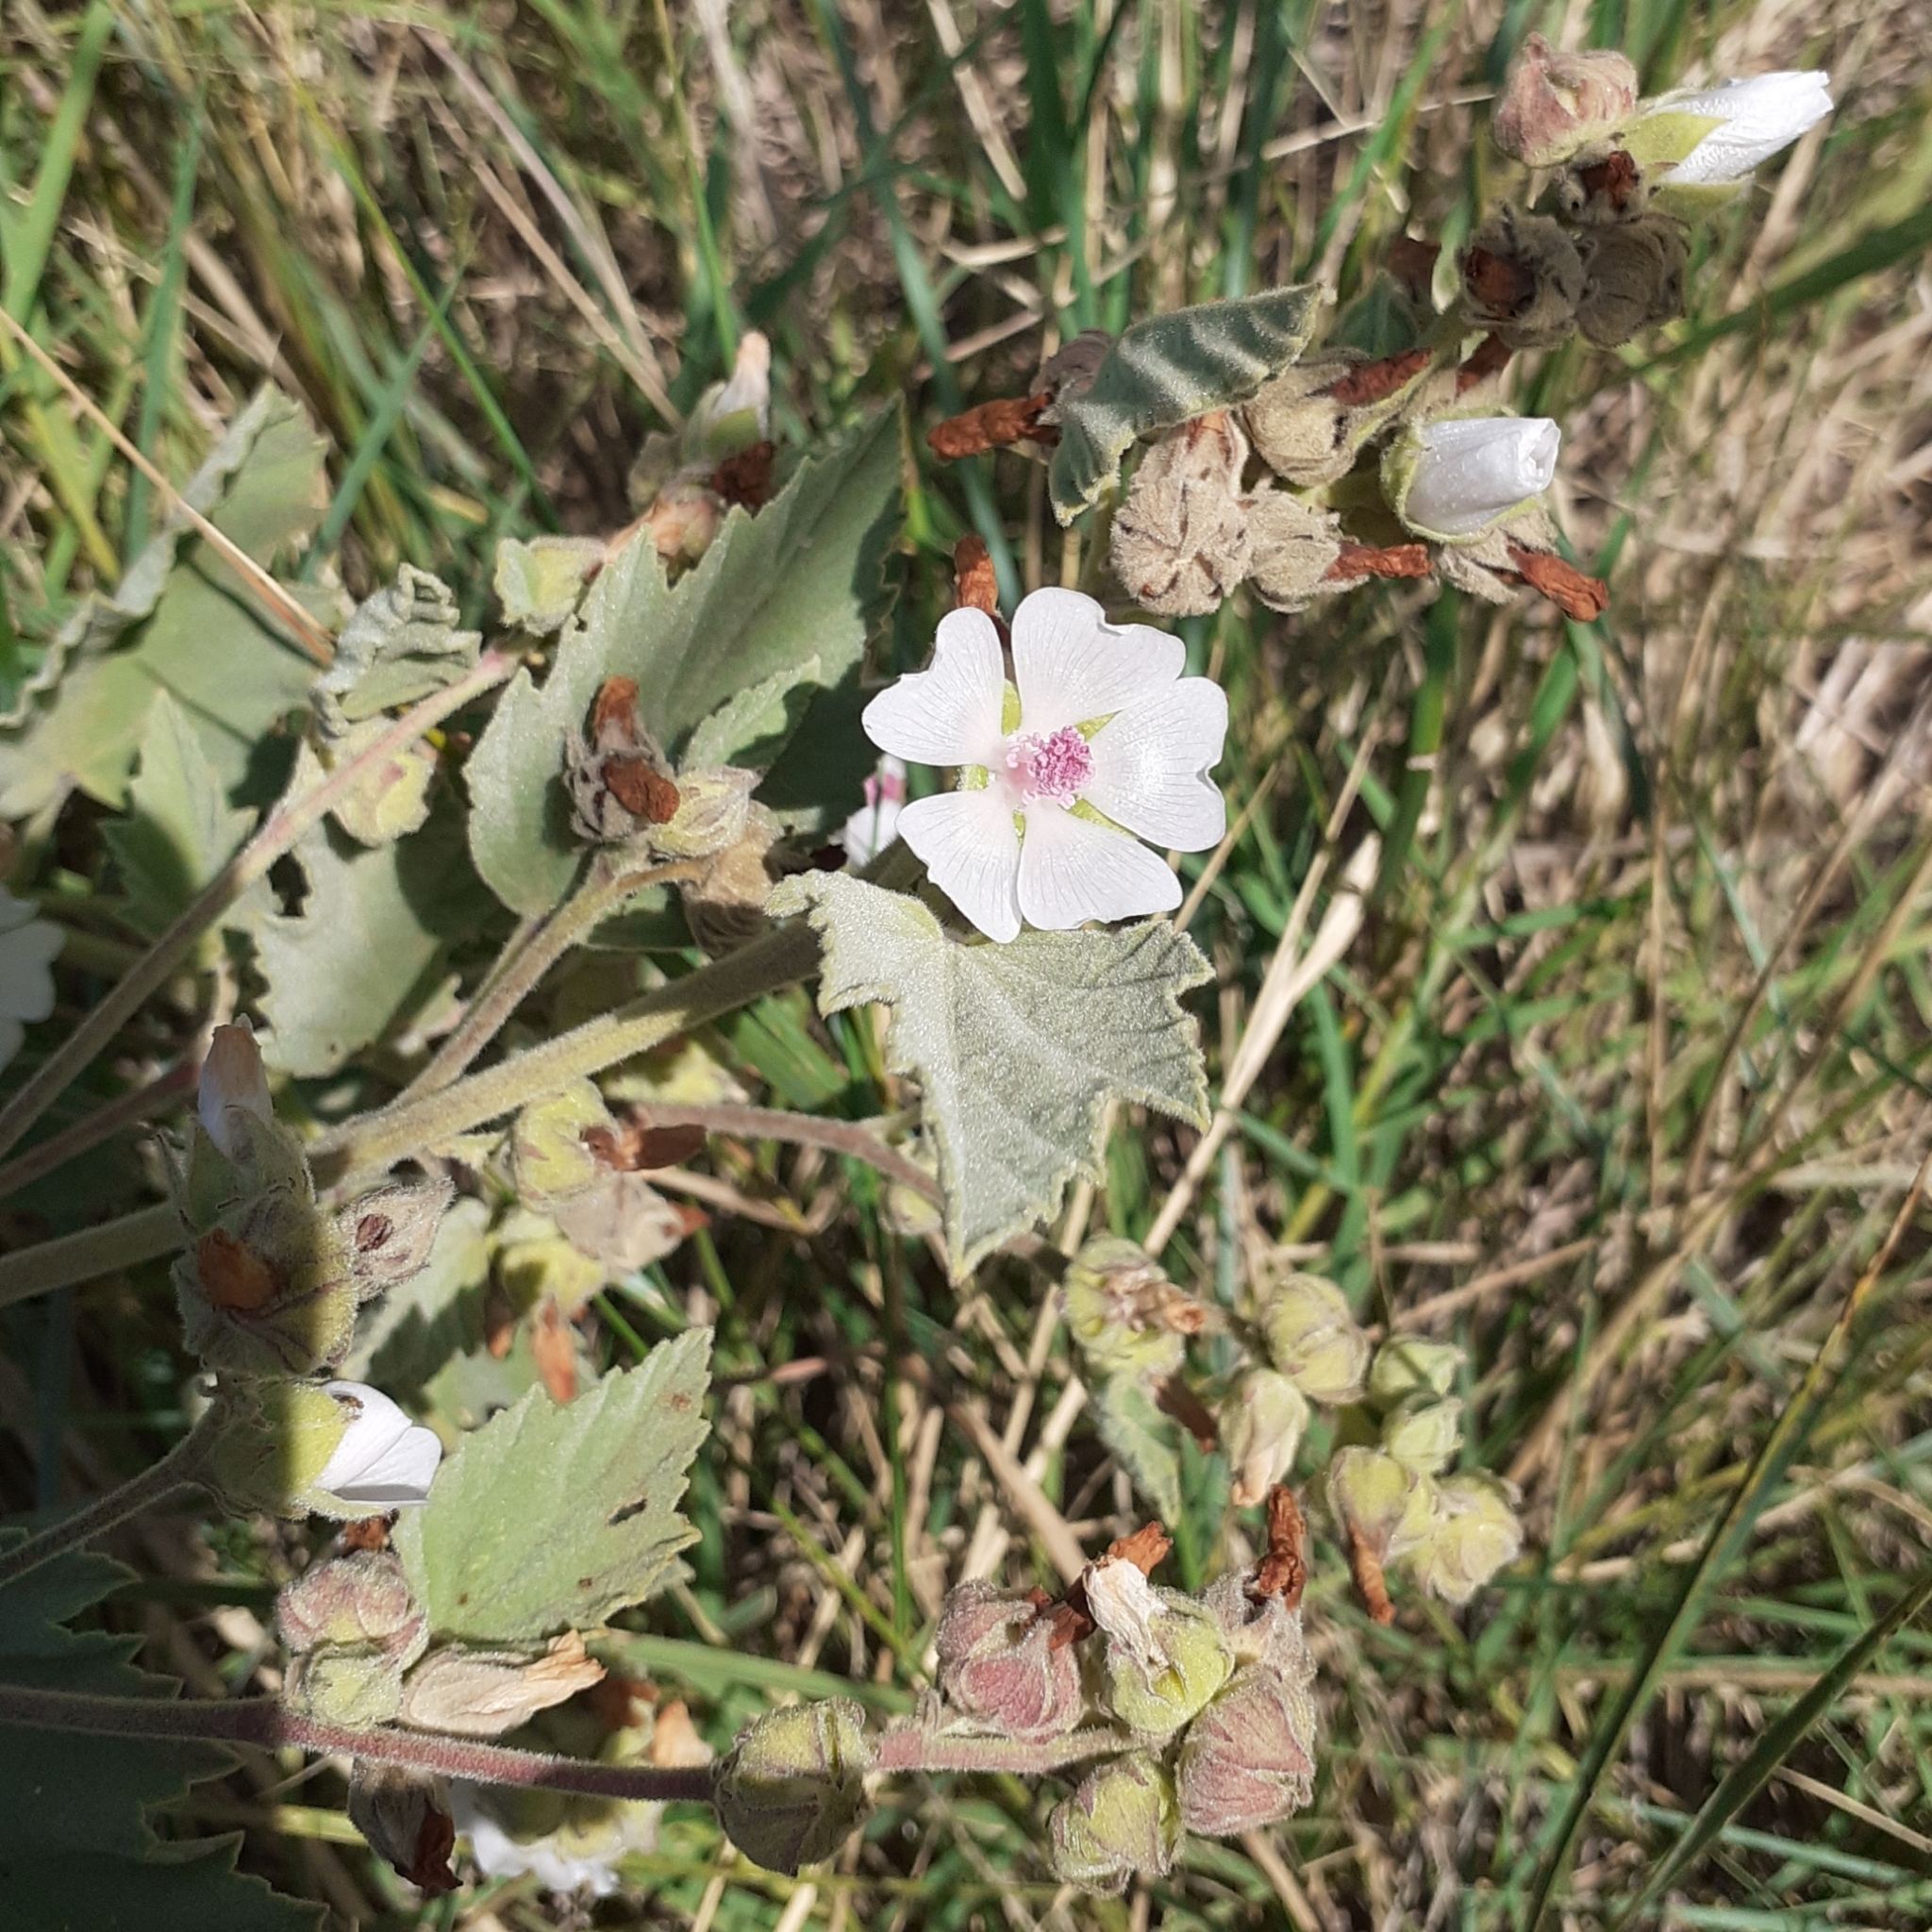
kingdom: Plantae
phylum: Tracheophyta
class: Magnoliopsida
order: Malvales
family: Malvaceae
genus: Althaea
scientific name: Althaea officinalis
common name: Marsh-mallow
